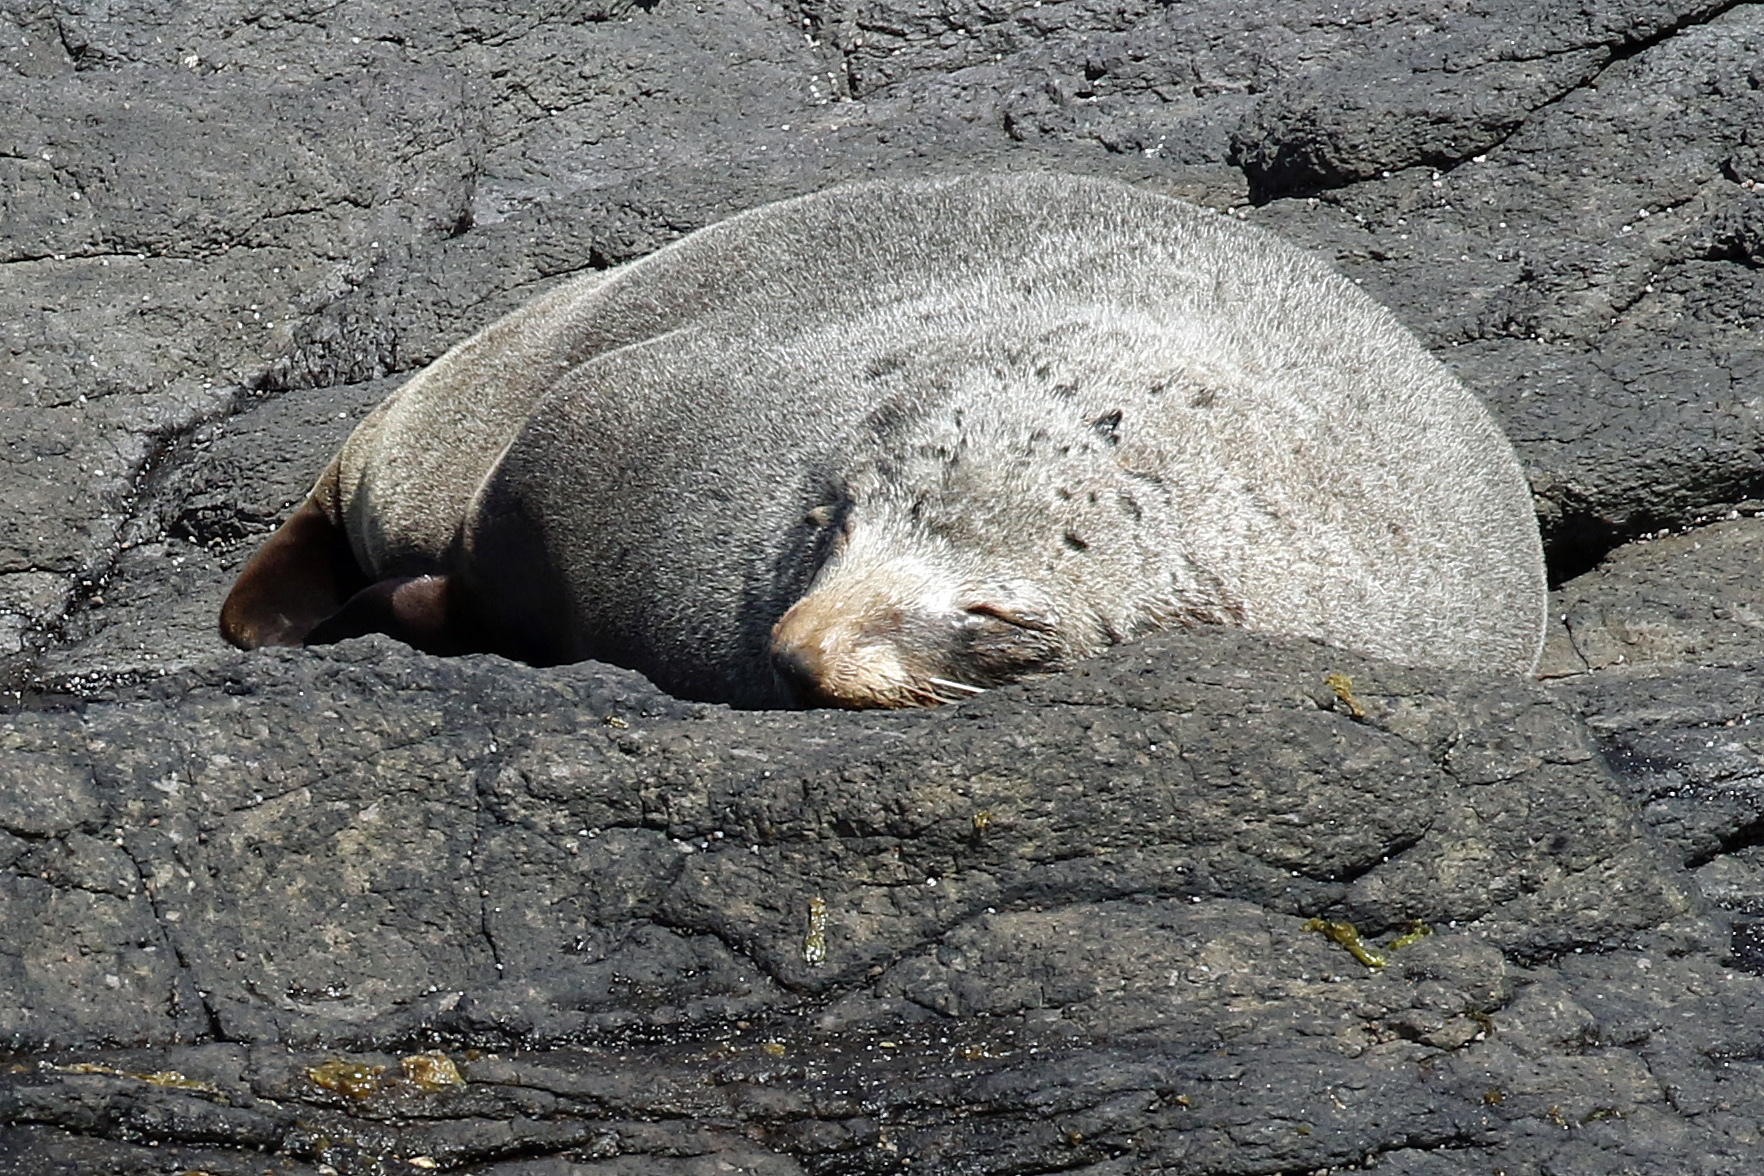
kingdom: Animalia
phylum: Chordata
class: Mammalia
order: Carnivora
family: Otariidae
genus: Arctocephalus
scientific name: Arctocephalus forsteri
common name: New zealand fur seal
